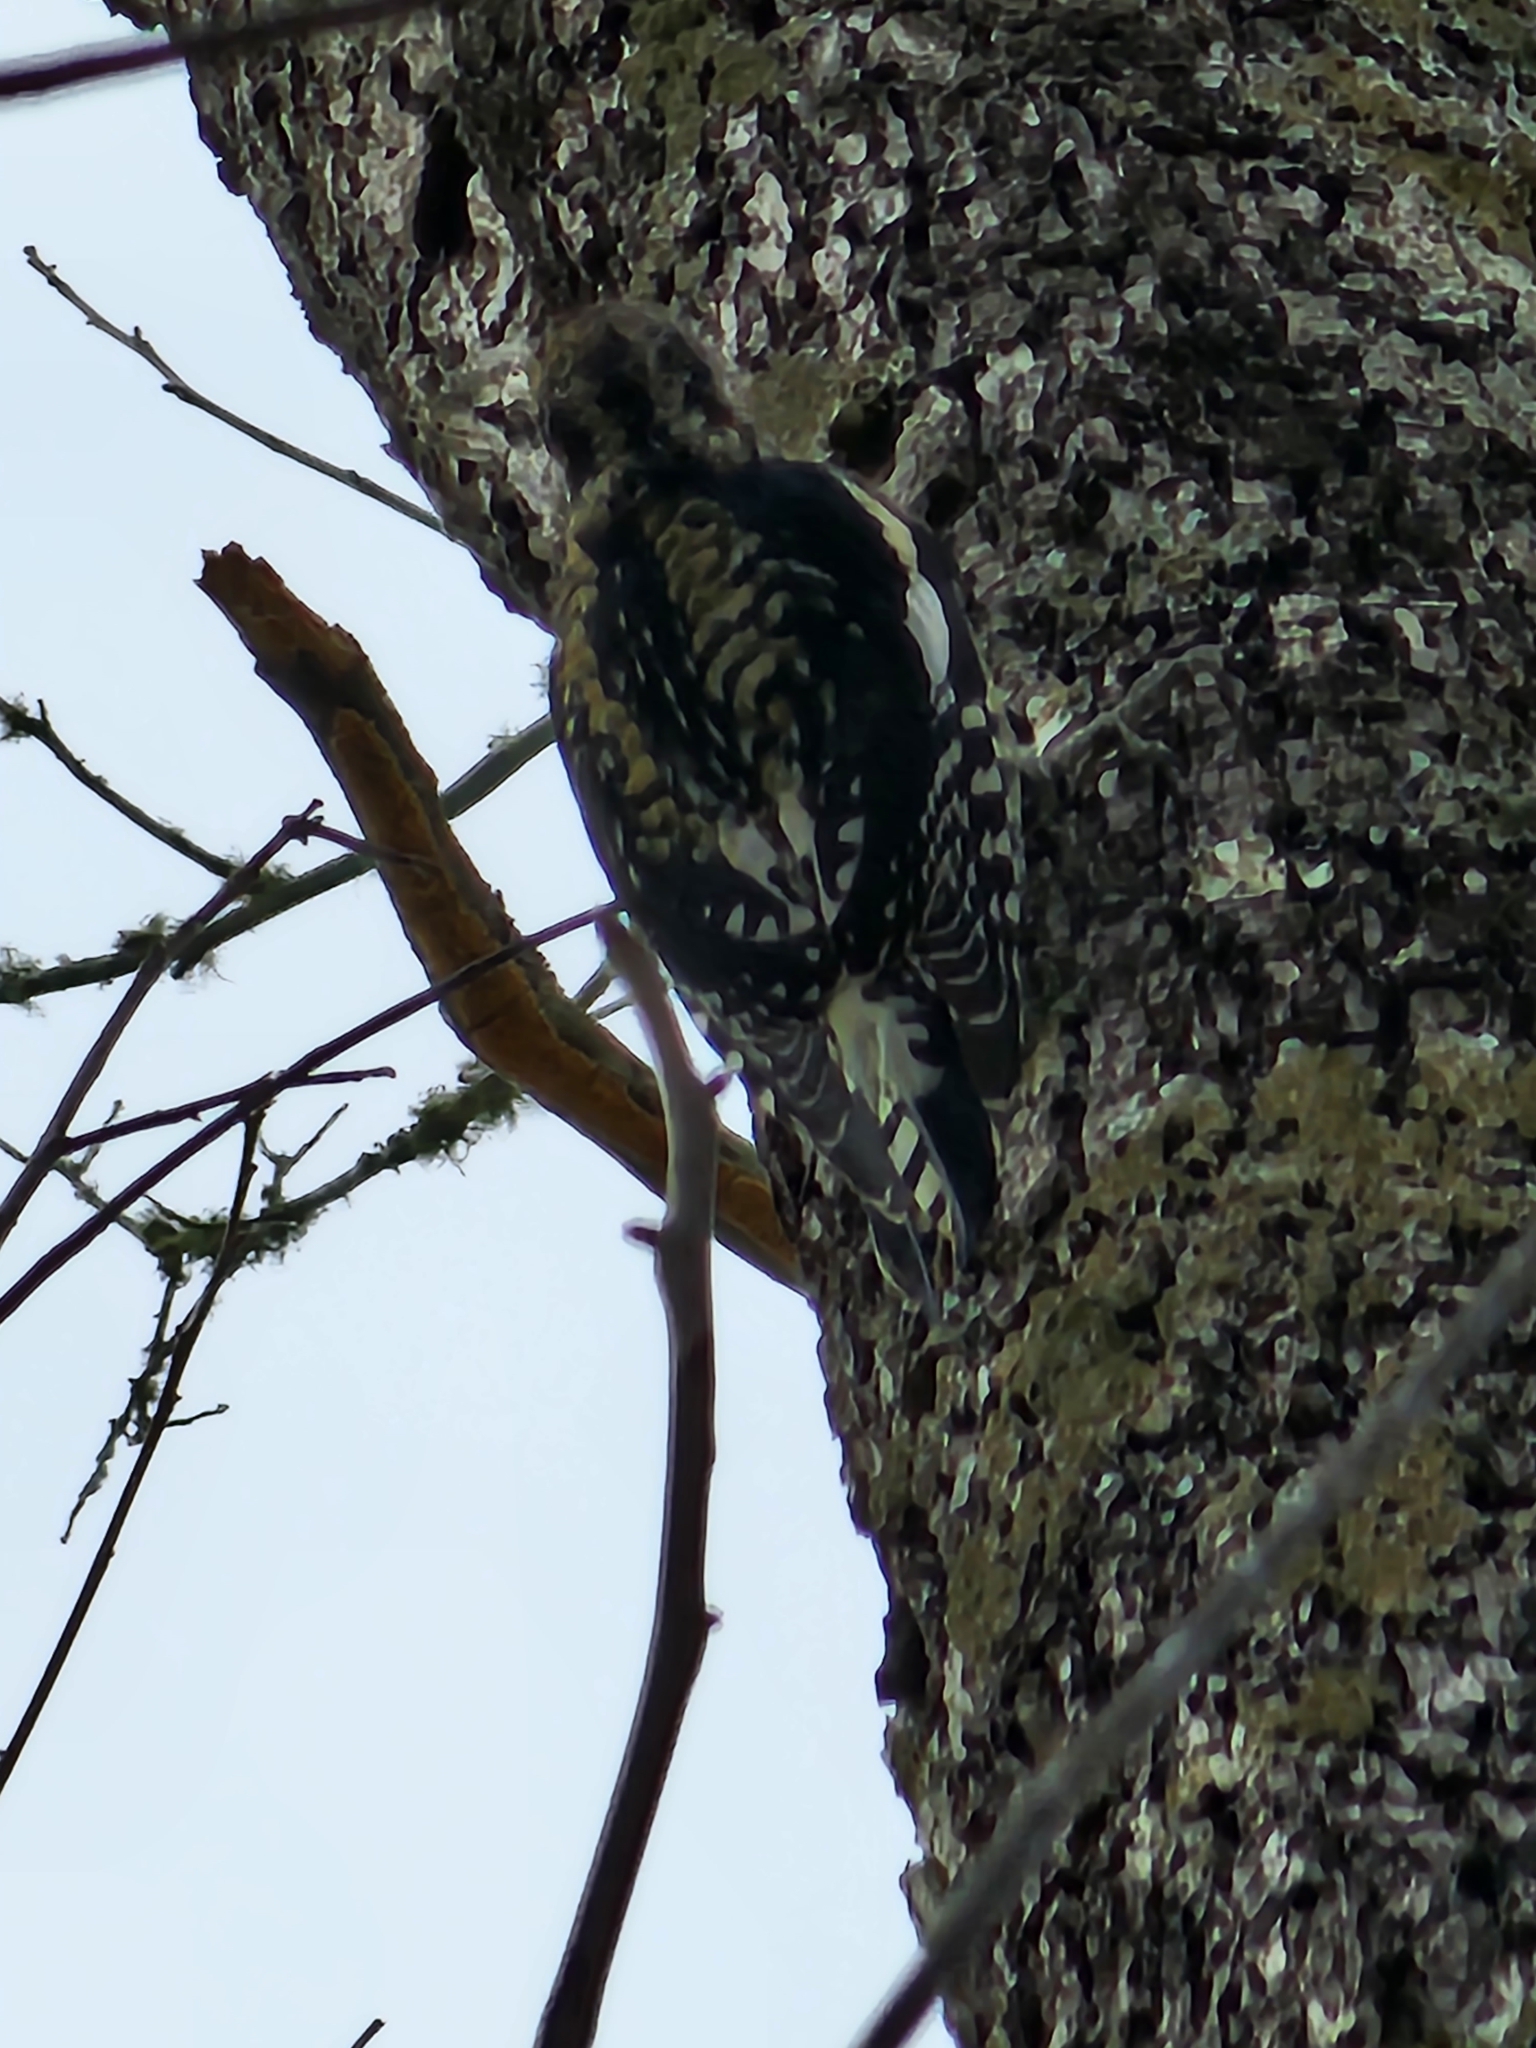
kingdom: Animalia
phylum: Chordata
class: Aves
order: Piciformes
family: Picidae
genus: Sphyrapicus
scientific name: Sphyrapicus varius
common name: Yellow-bellied sapsucker
